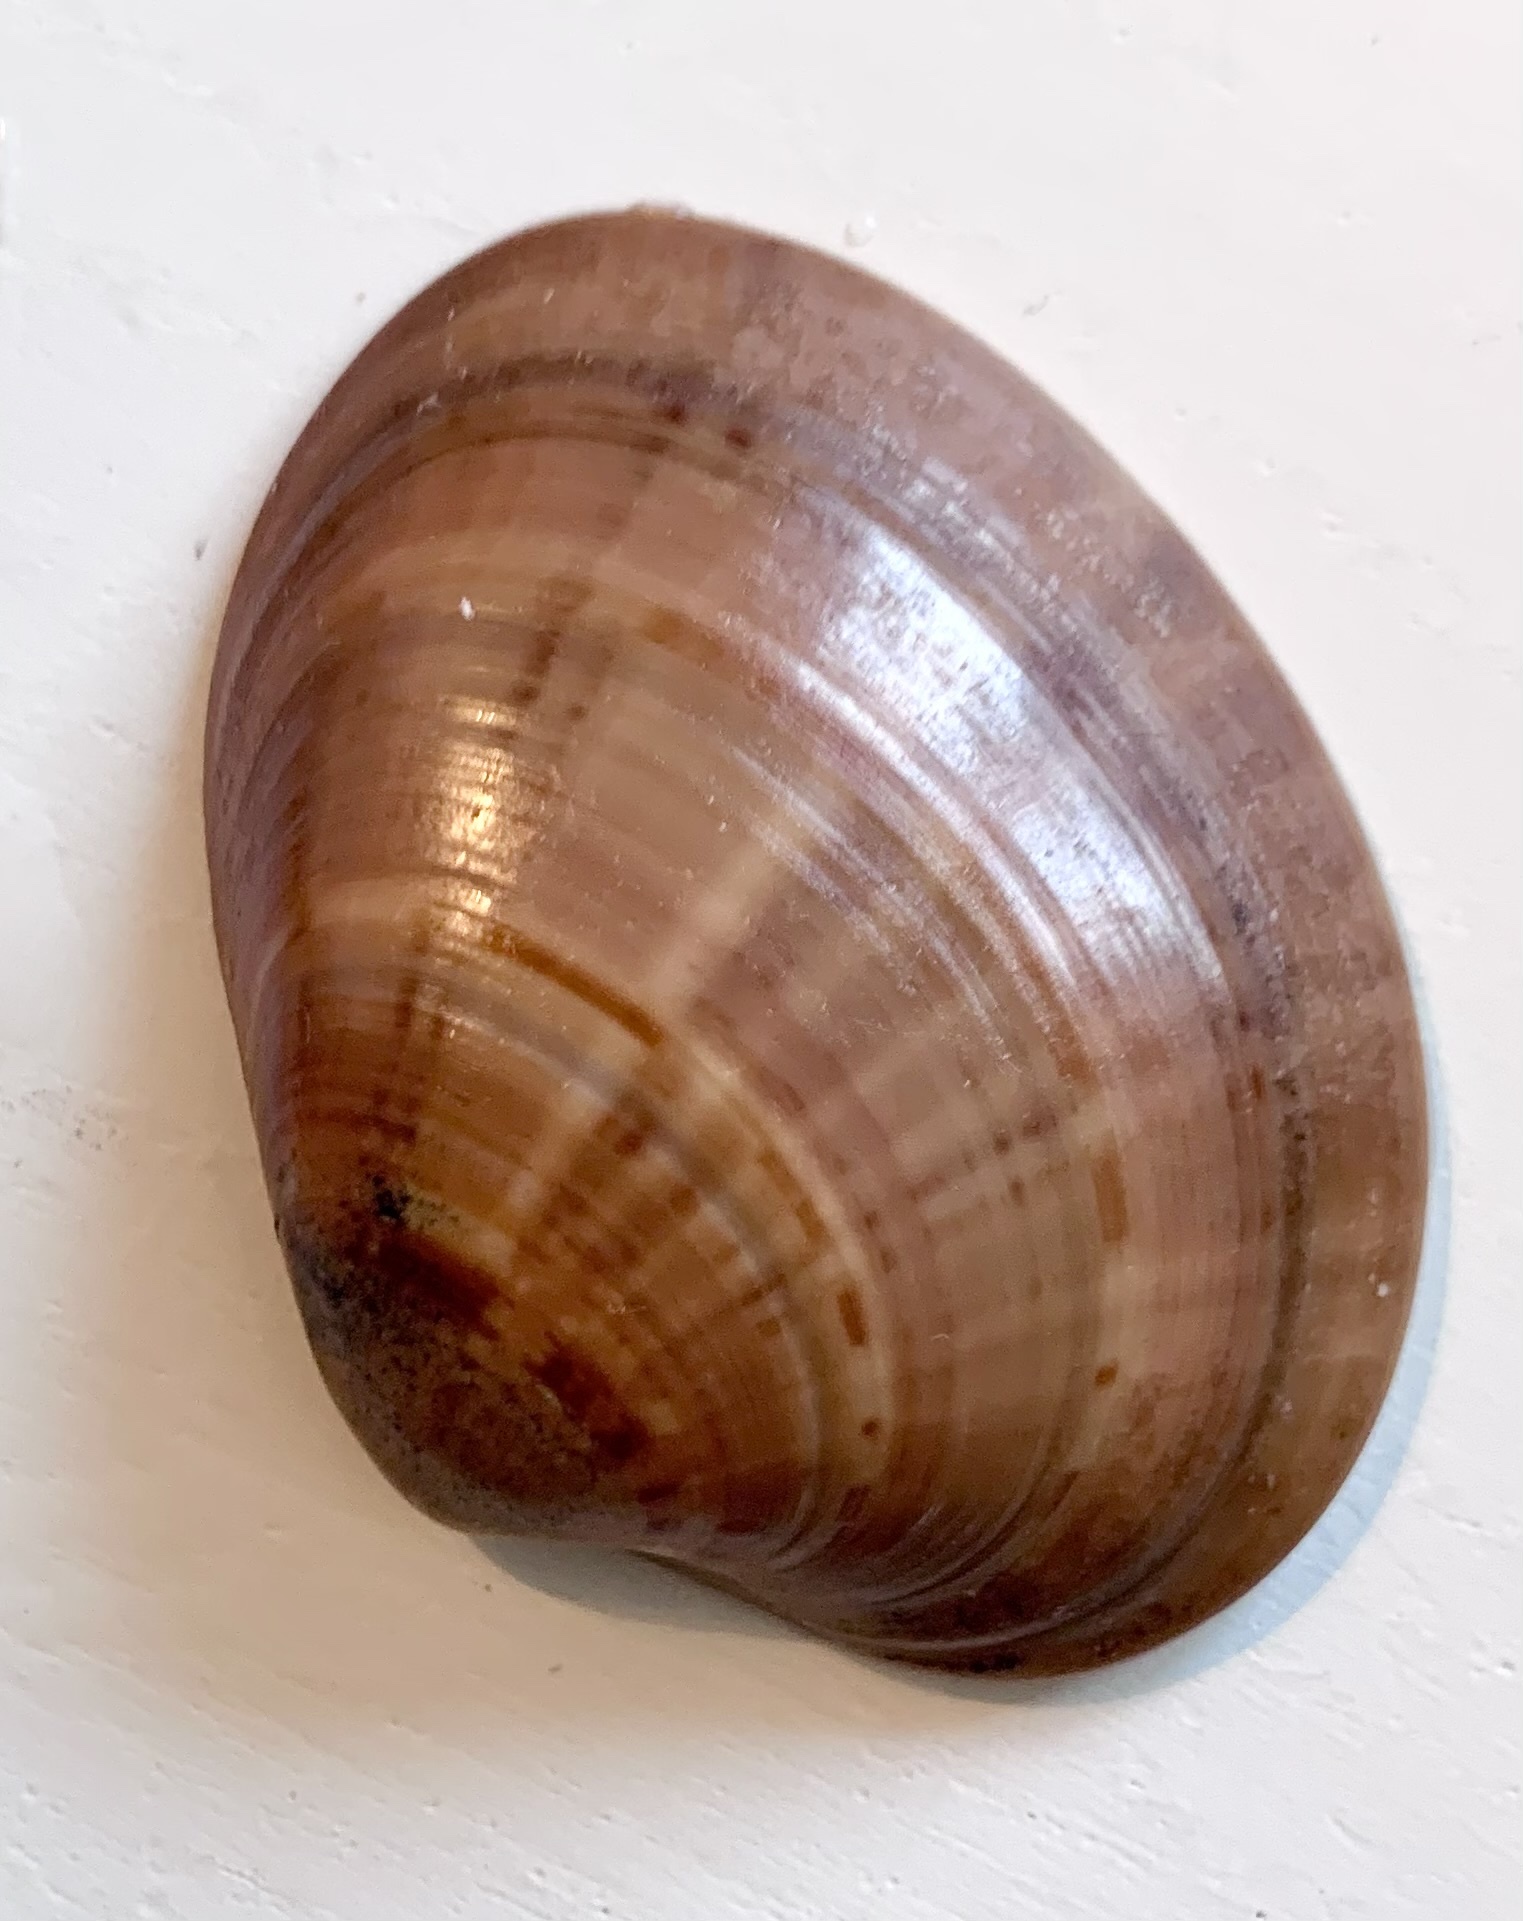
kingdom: Animalia
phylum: Mollusca
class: Bivalvia
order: Venerida
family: Veneridae
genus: Callista
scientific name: Callista chione
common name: Brown venus
